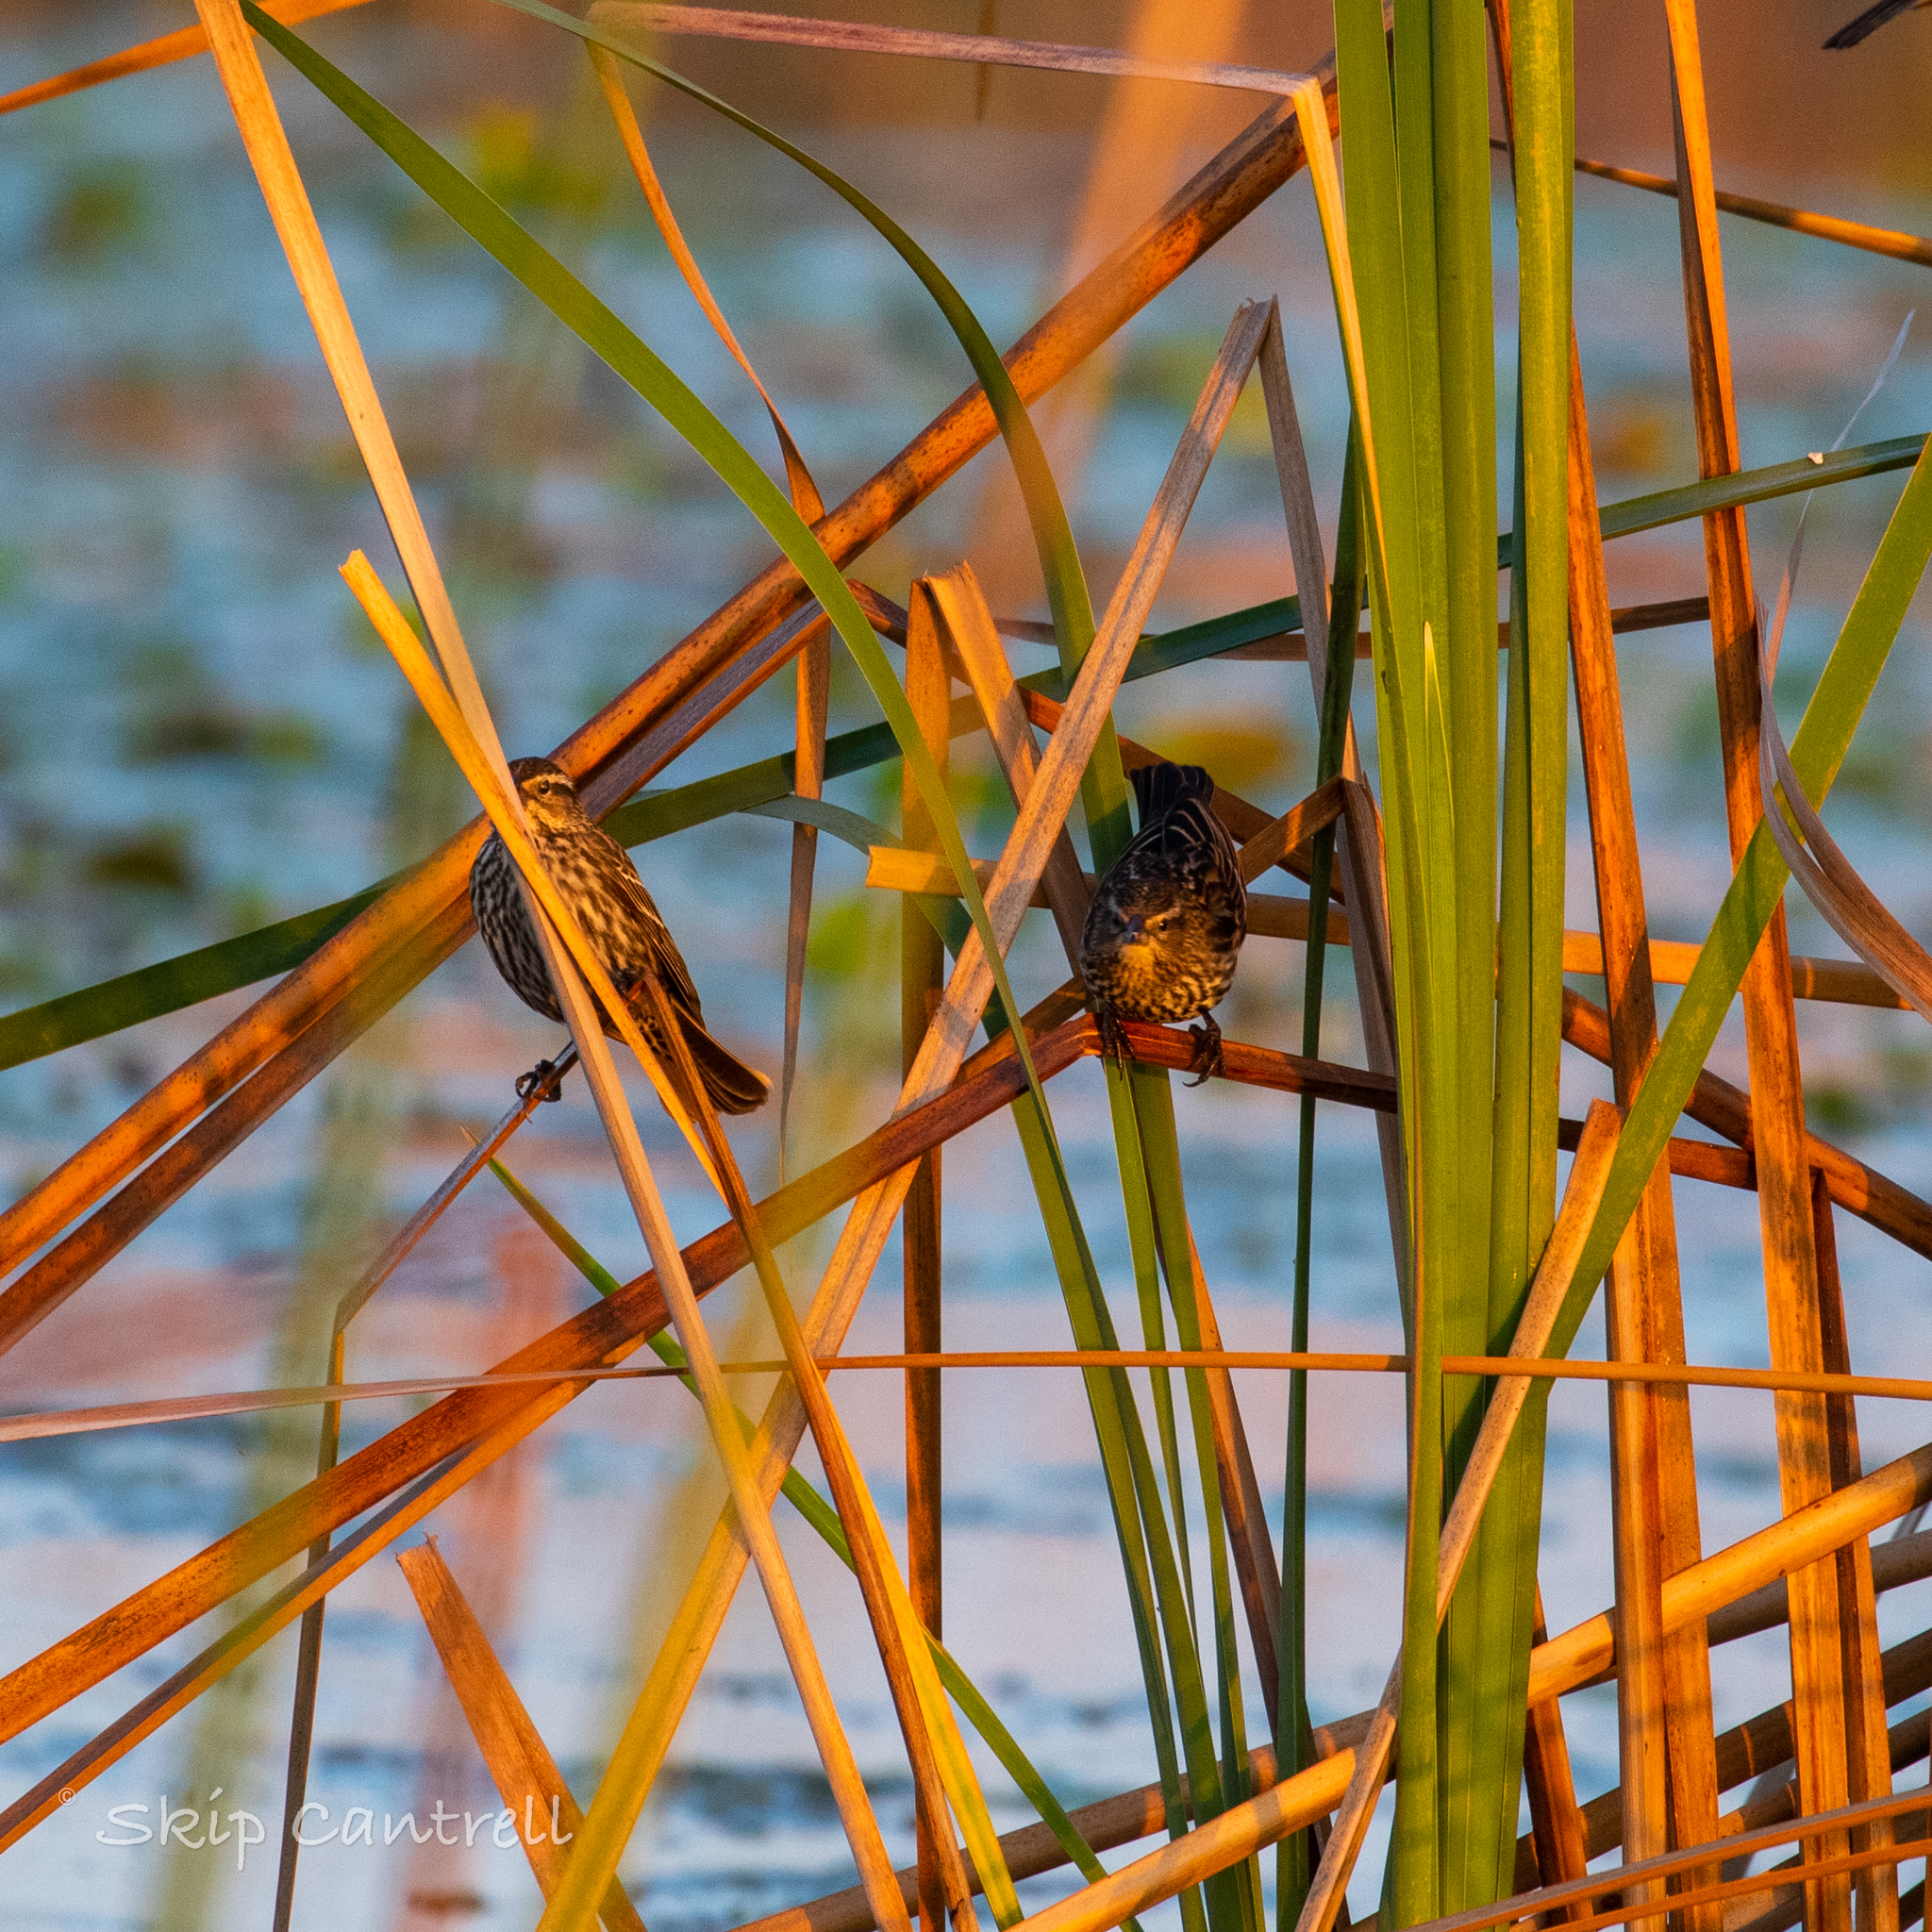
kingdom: Animalia
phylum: Chordata
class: Aves
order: Passeriformes
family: Icteridae
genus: Agelaius
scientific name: Agelaius phoeniceus
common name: Red-winged blackbird
